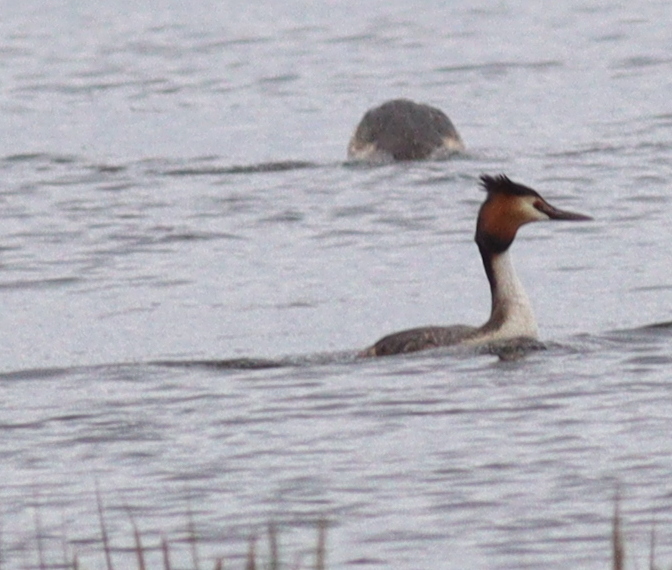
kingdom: Animalia
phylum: Chordata
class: Aves
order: Podicipediformes
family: Podicipedidae
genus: Podiceps
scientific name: Podiceps cristatus
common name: Great crested grebe
